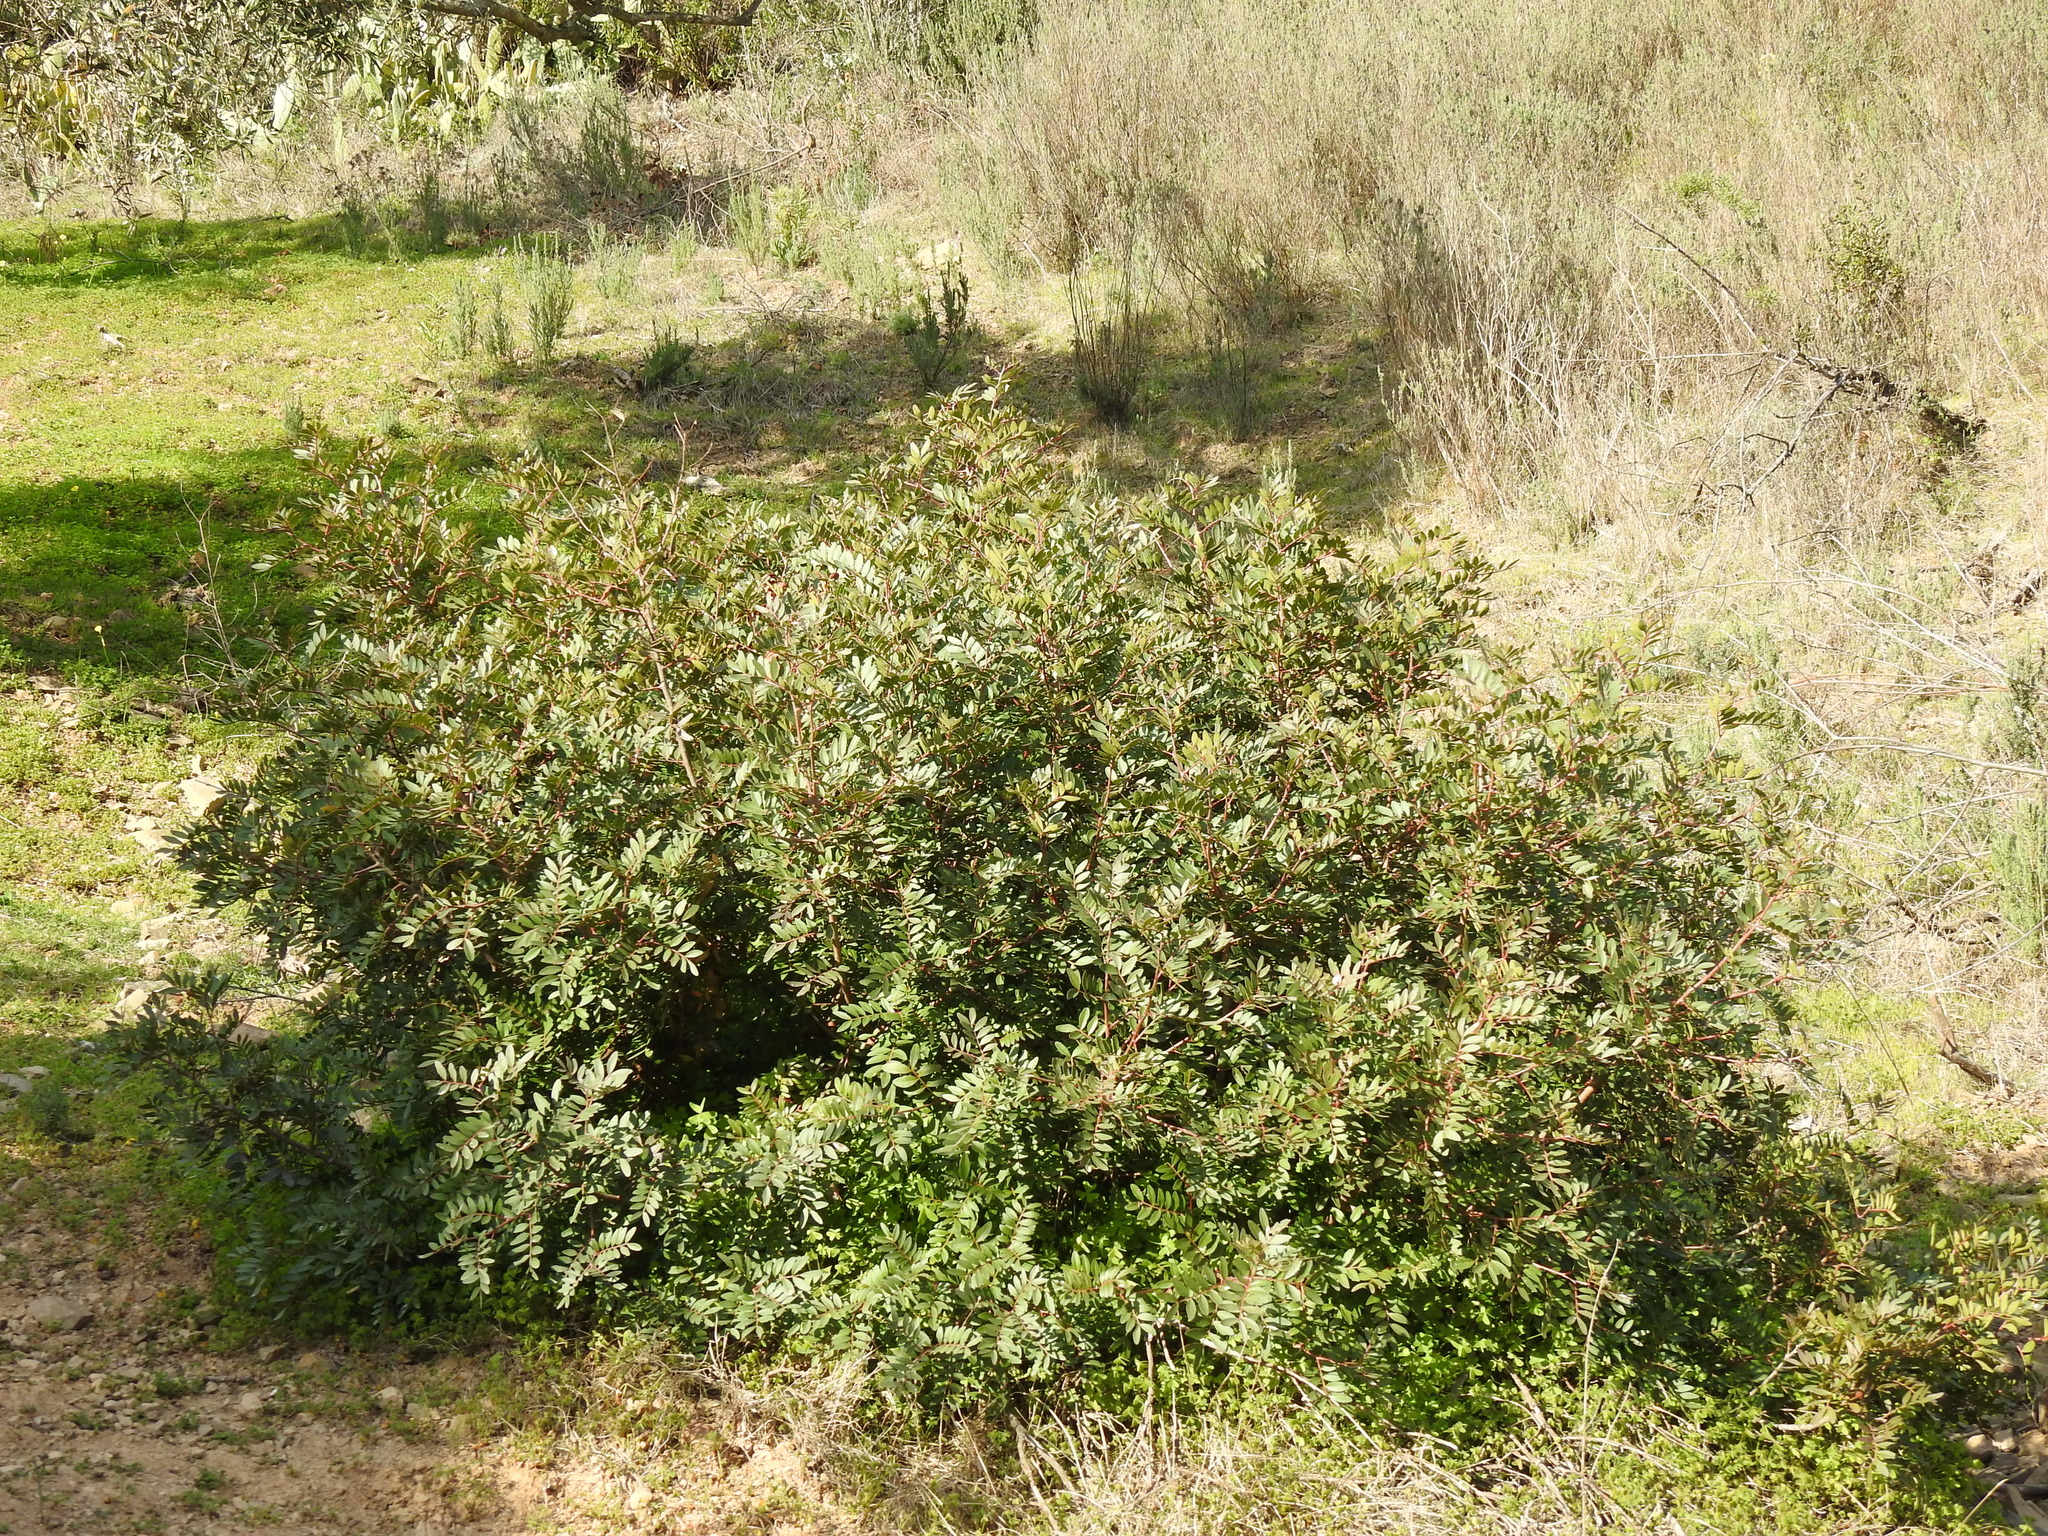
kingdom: Plantae
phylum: Tracheophyta
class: Magnoliopsida
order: Sapindales
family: Anacardiaceae
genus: Pistacia
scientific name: Pistacia lentiscus
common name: Lentisk
